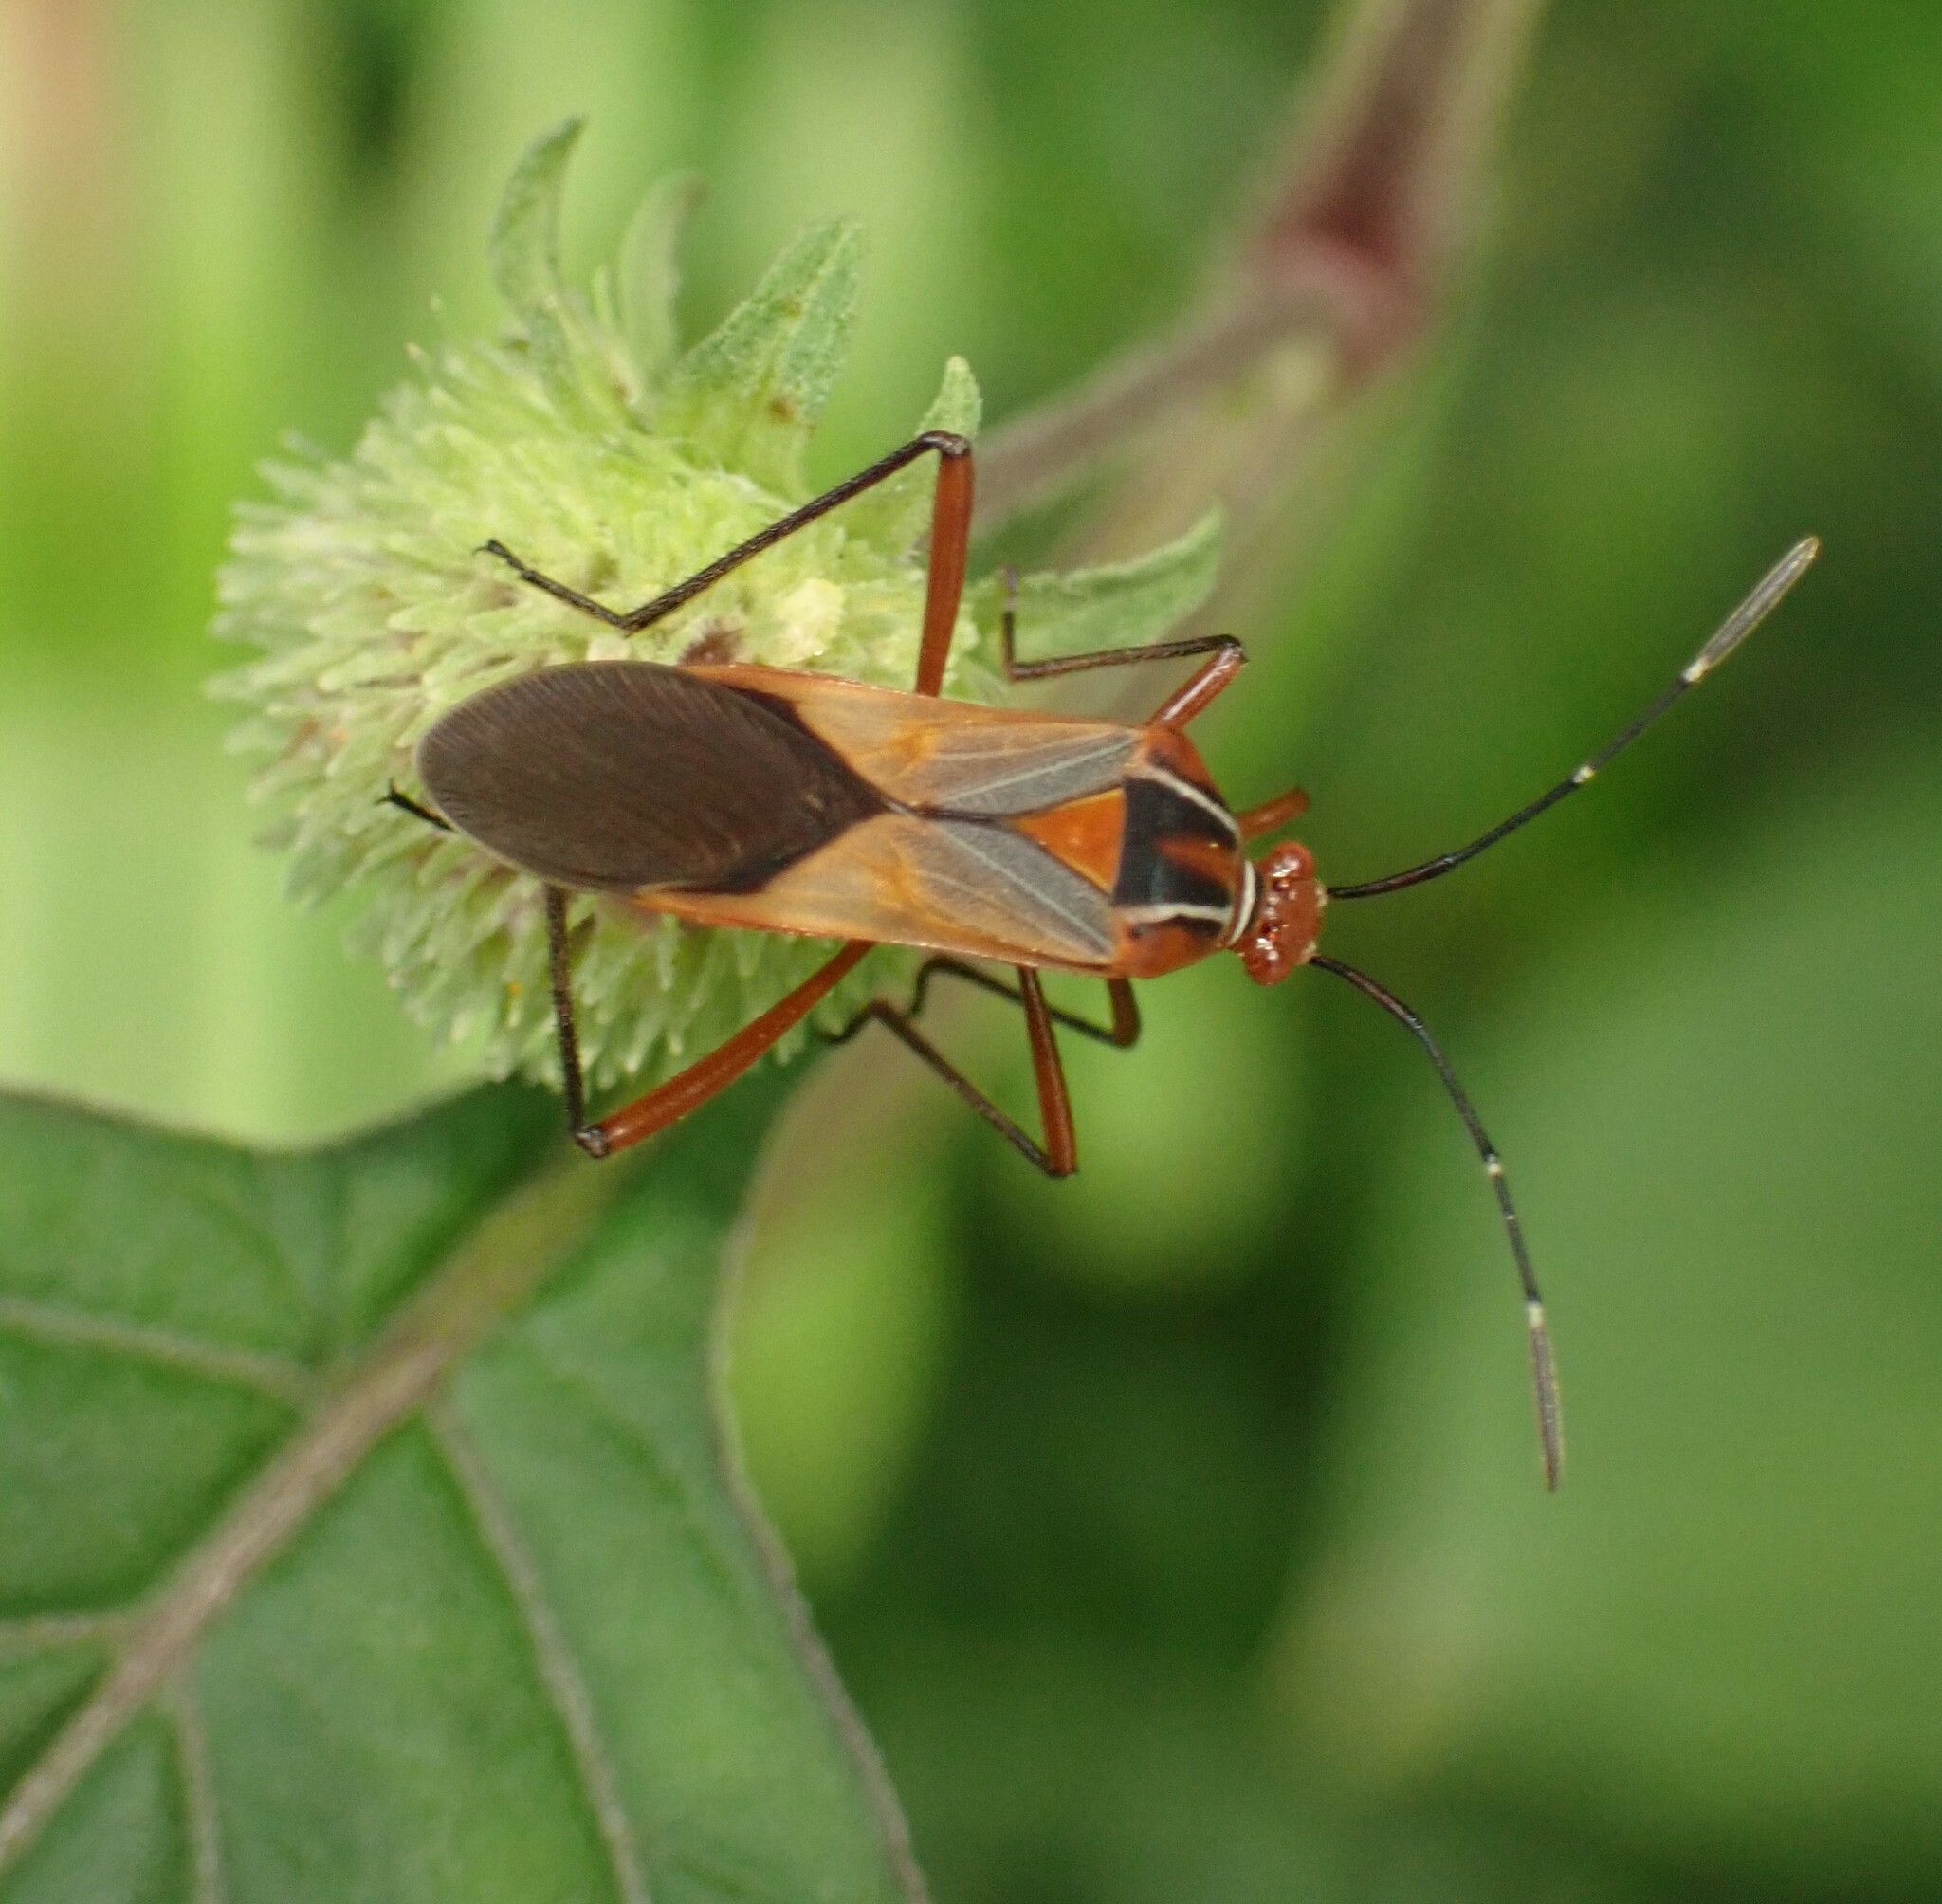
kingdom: Animalia
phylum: Arthropoda
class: Insecta
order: Hemiptera
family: Coreidae
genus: Hypselonotus
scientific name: Hypselonotus interruptus
